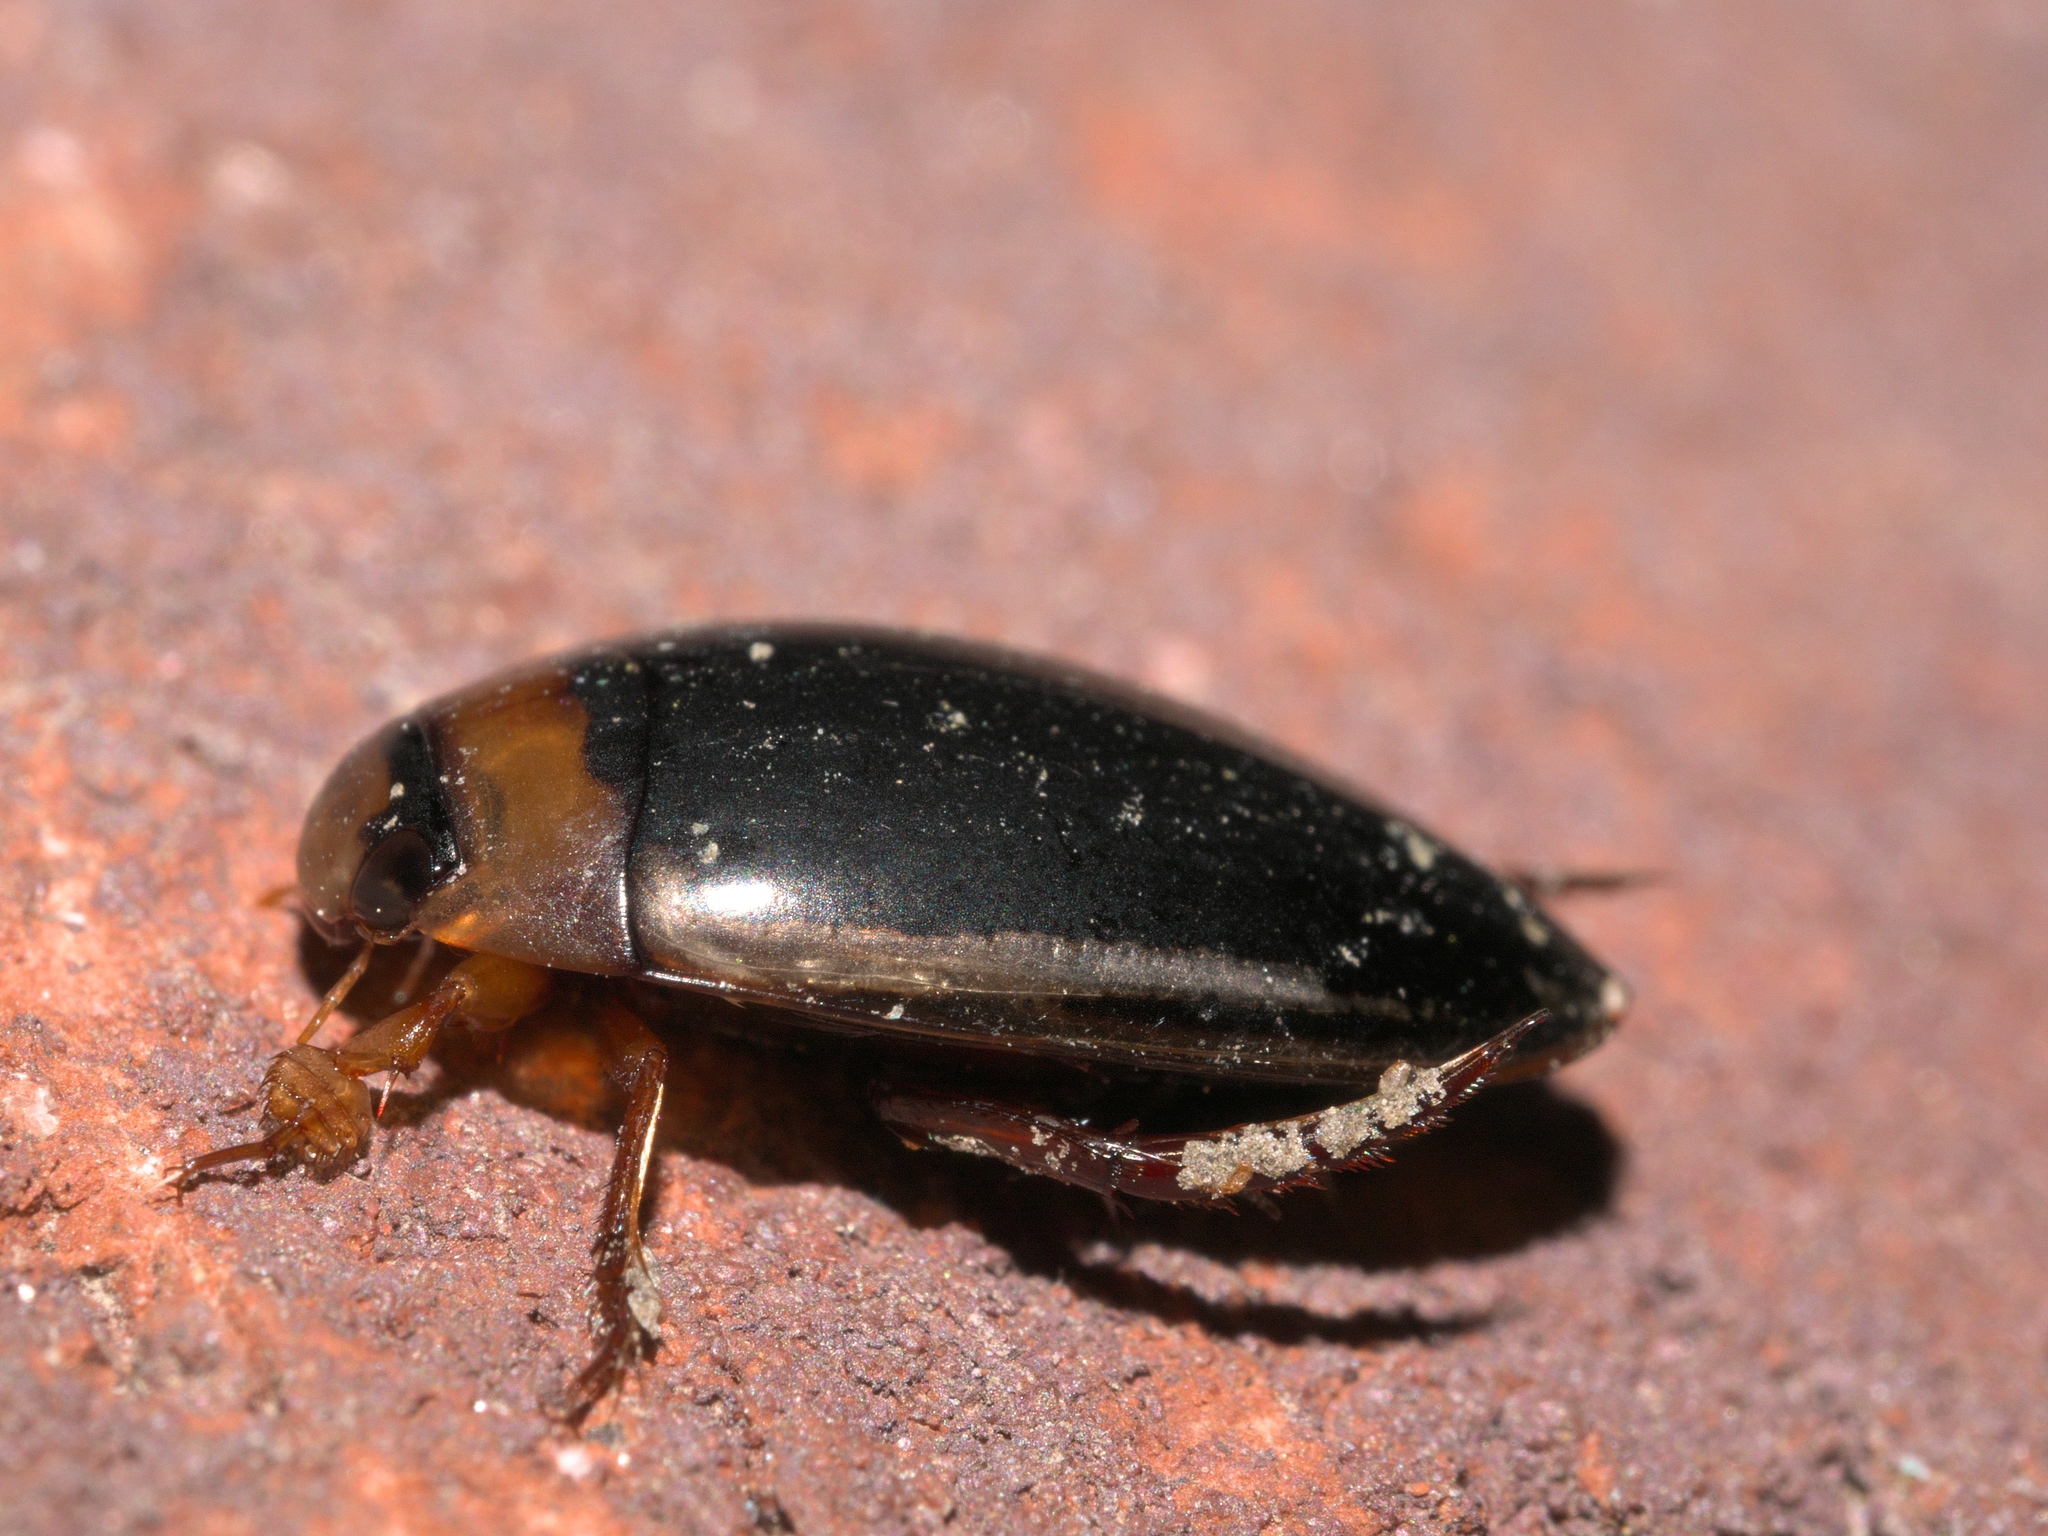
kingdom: Animalia
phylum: Arthropoda
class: Insecta
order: Coleoptera
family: Dytiscidae
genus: Hydaticus
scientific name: Hydaticus bimarginatus
